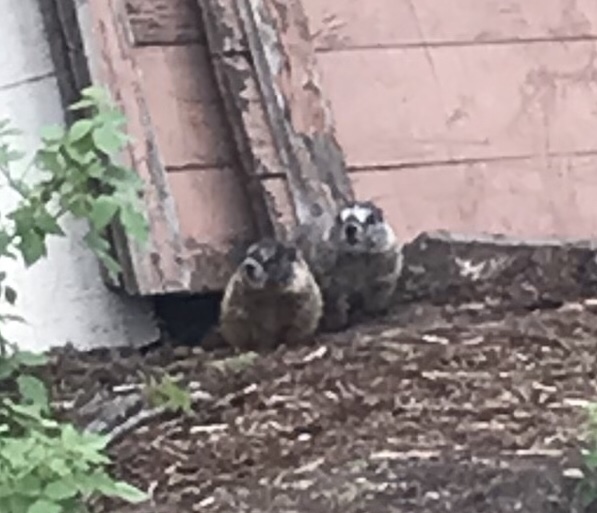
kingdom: Animalia
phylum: Chordata
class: Mammalia
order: Rodentia
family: Sciuridae
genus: Marmota
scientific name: Marmota flaviventris
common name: Yellow-bellied marmot
